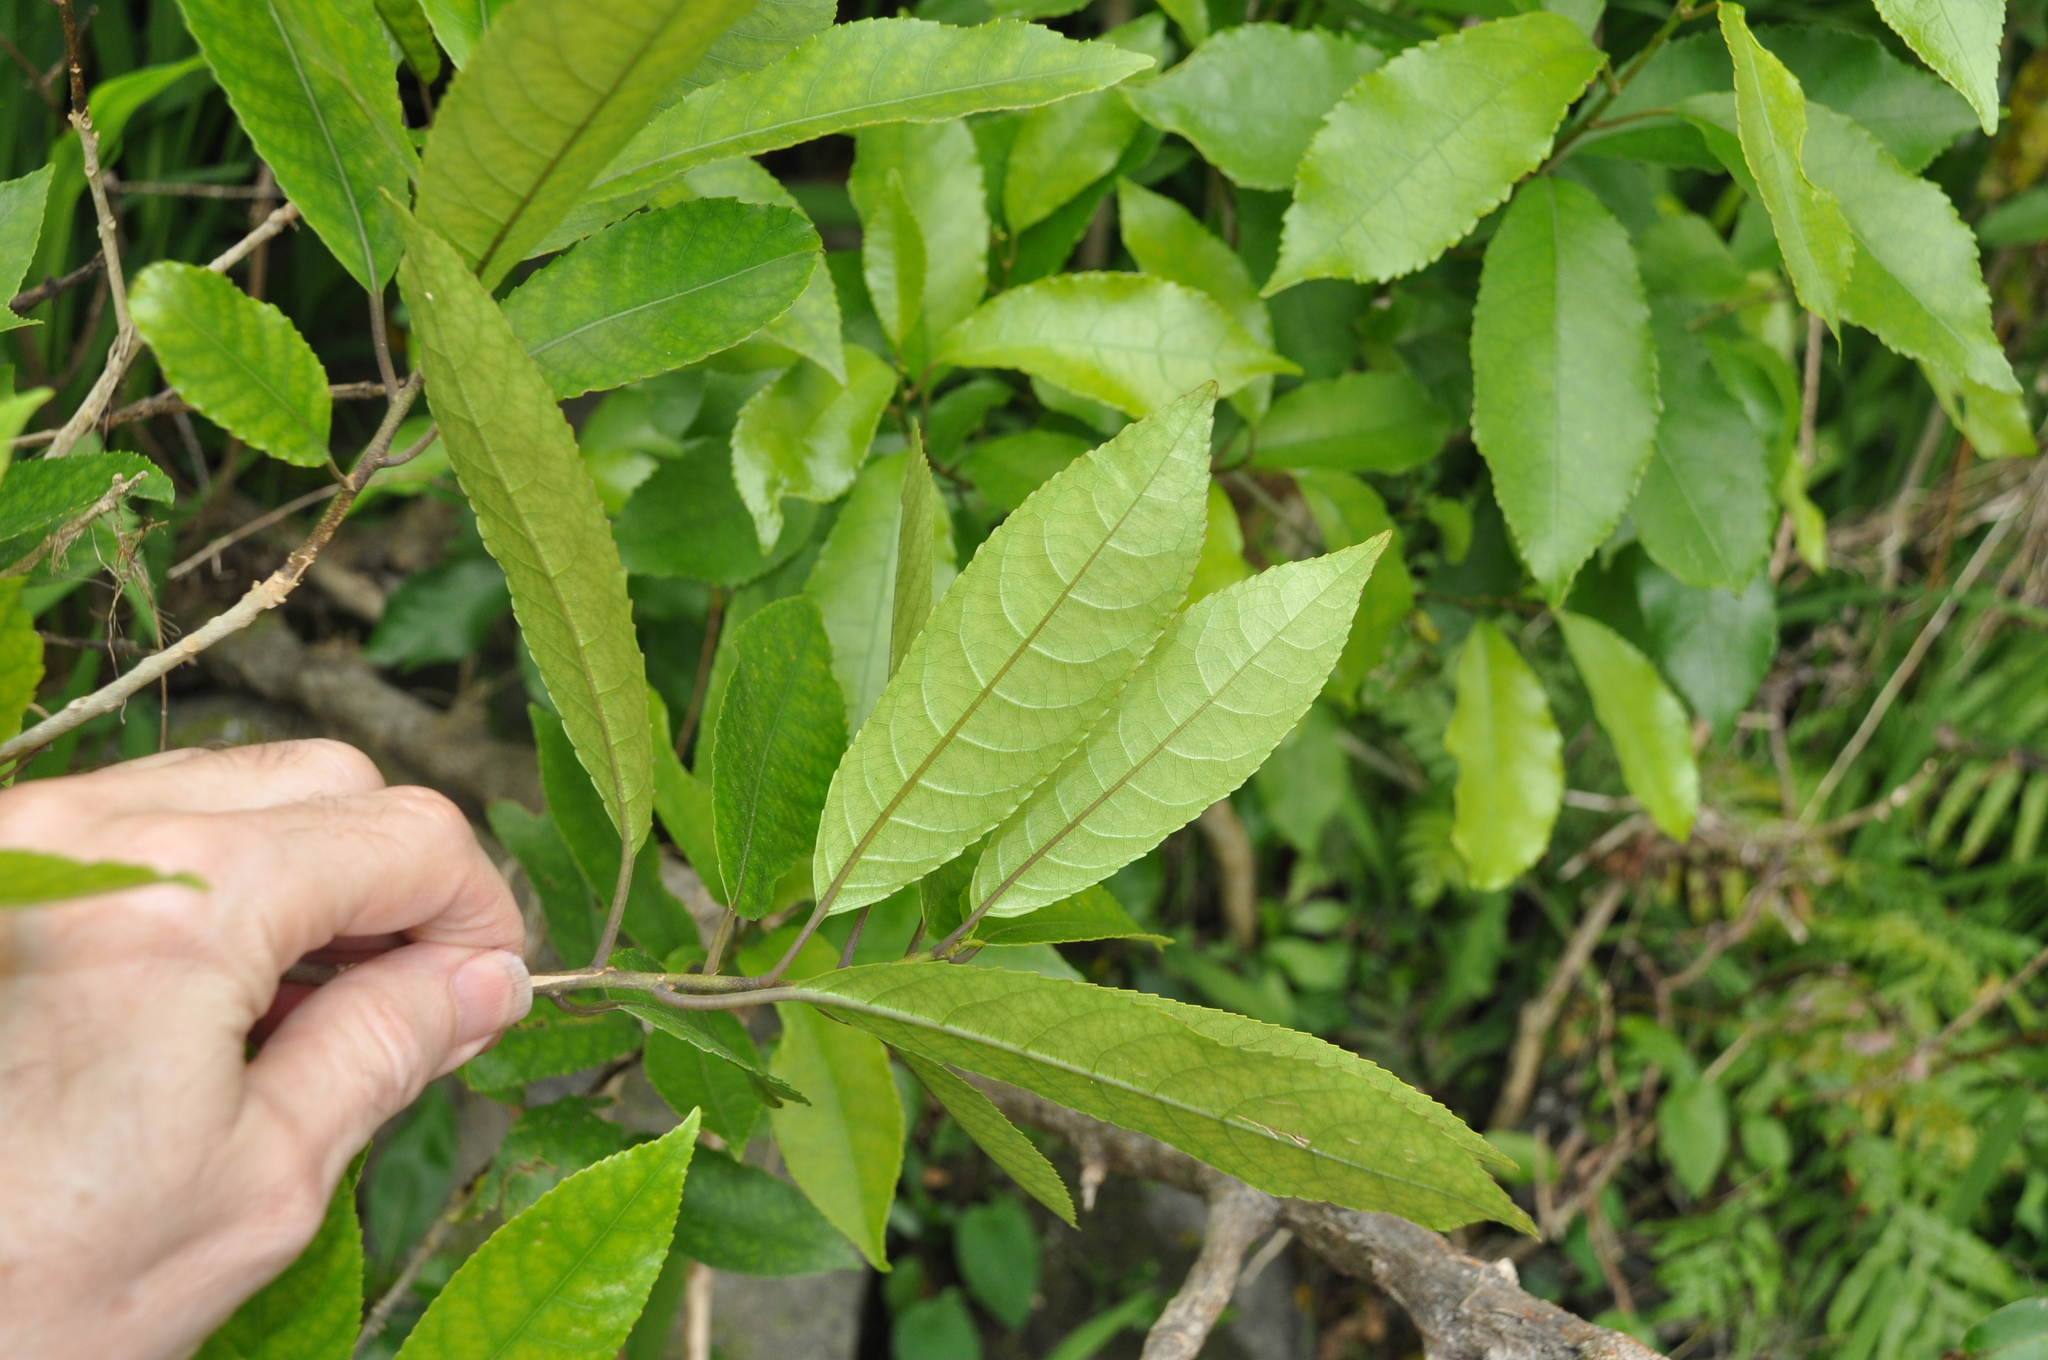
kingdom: Plantae
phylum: Tracheophyta
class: Magnoliopsida
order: Malpighiales
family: Violaceae
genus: Melicytus
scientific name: Melicytus ramiflorus
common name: Mahoe
